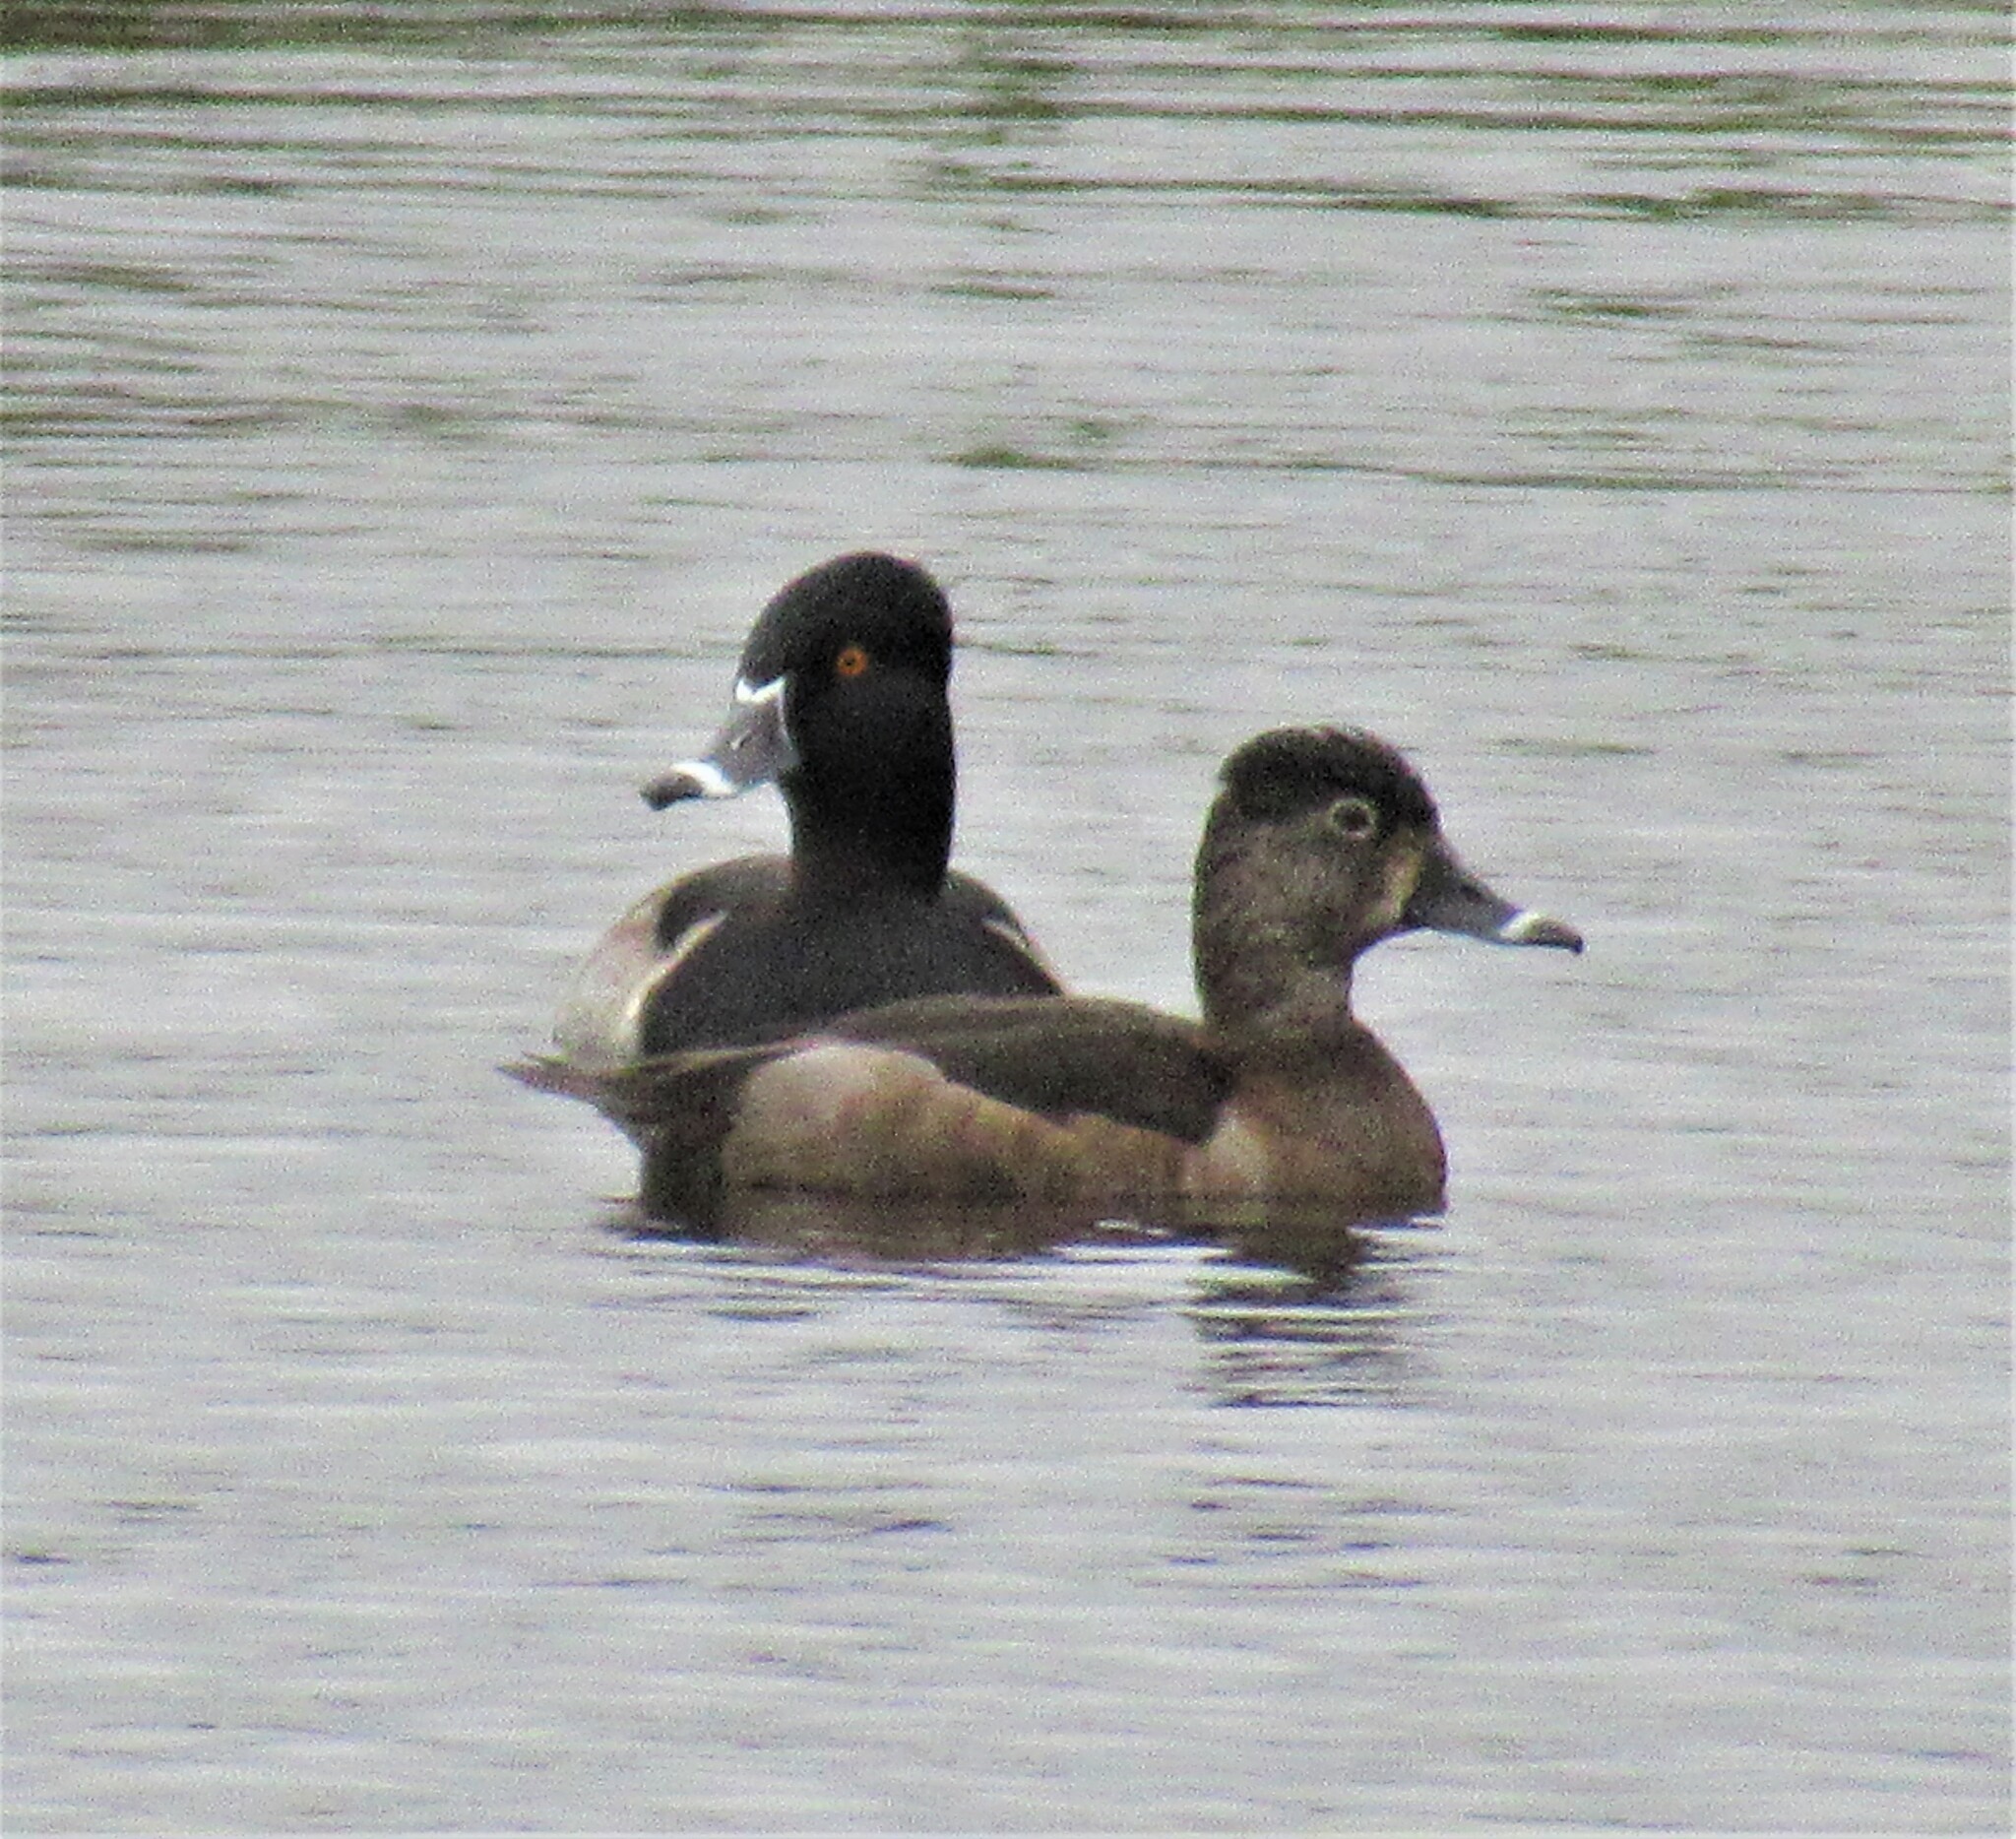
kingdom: Animalia
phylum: Chordata
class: Aves
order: Anseriformes
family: Anatidae
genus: Aythya
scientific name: Aythya collaris
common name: Ring-necked duck
